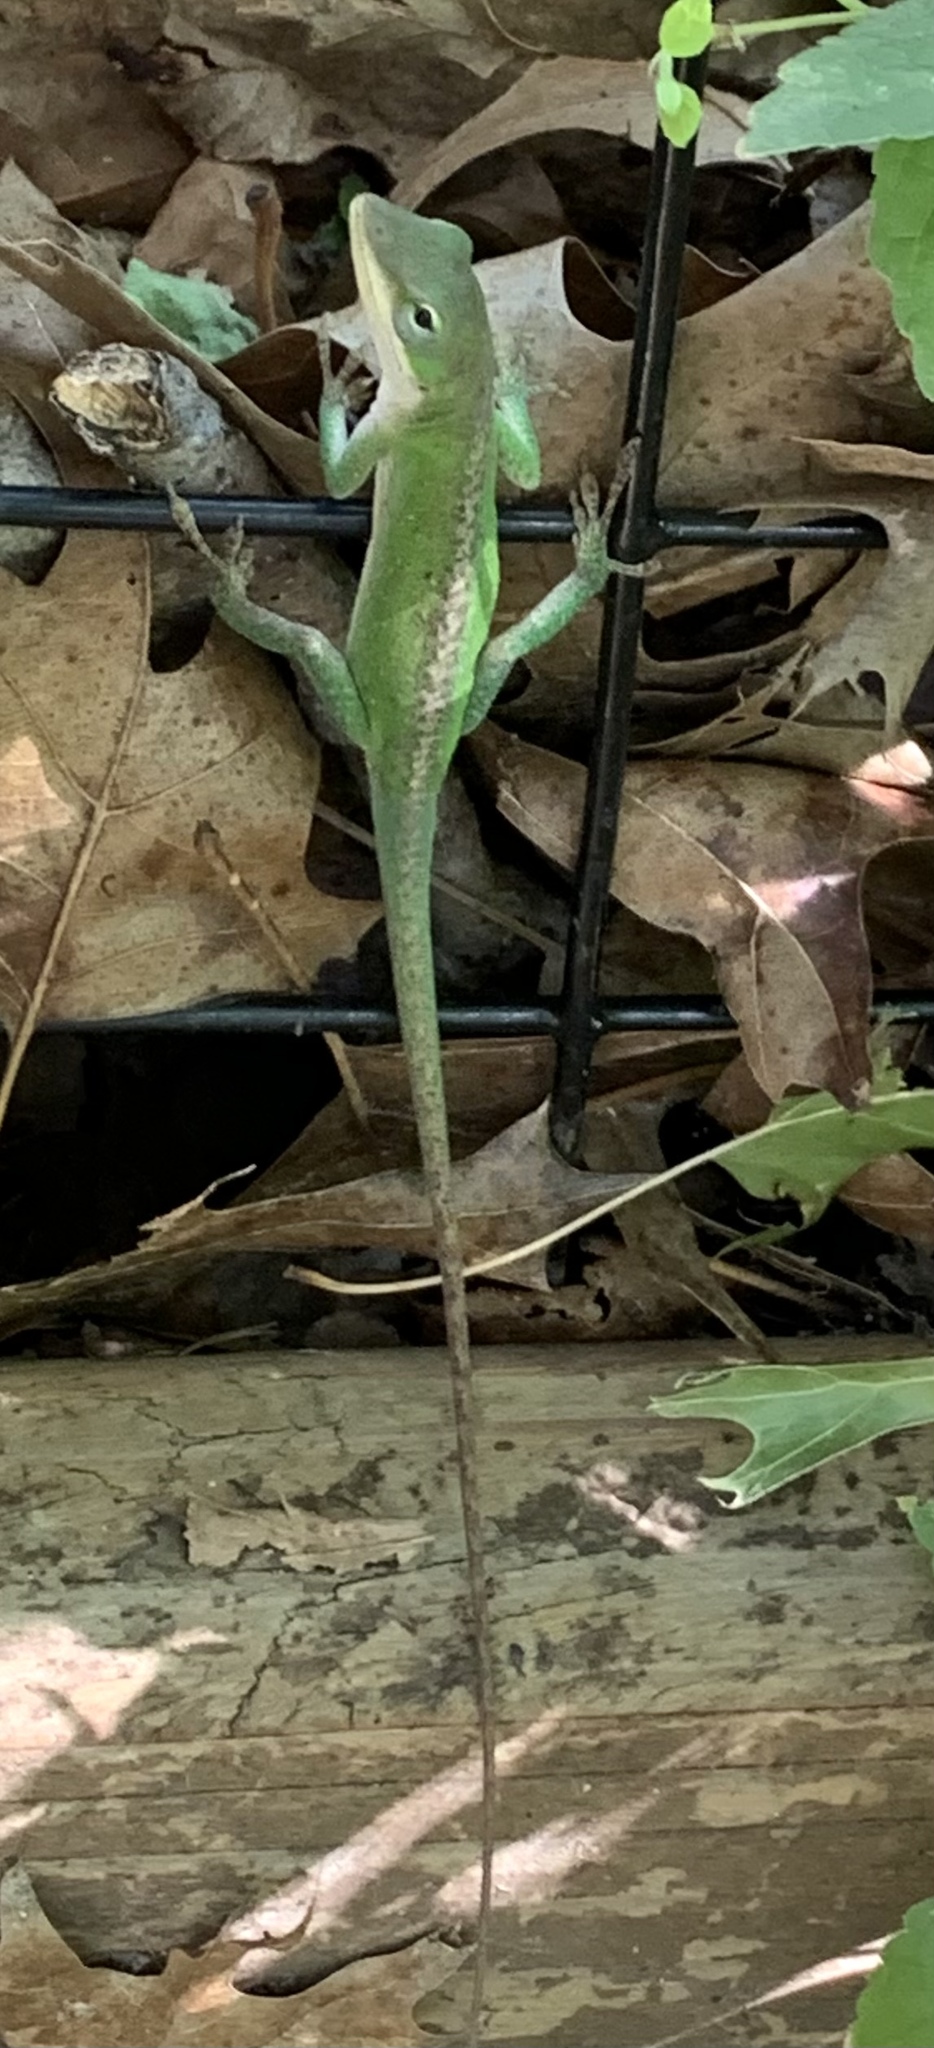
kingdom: Animalia
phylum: Chordata
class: Squamata
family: Dactyloidae
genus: Anolis
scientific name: Anolis carolinensis
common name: Green anole
